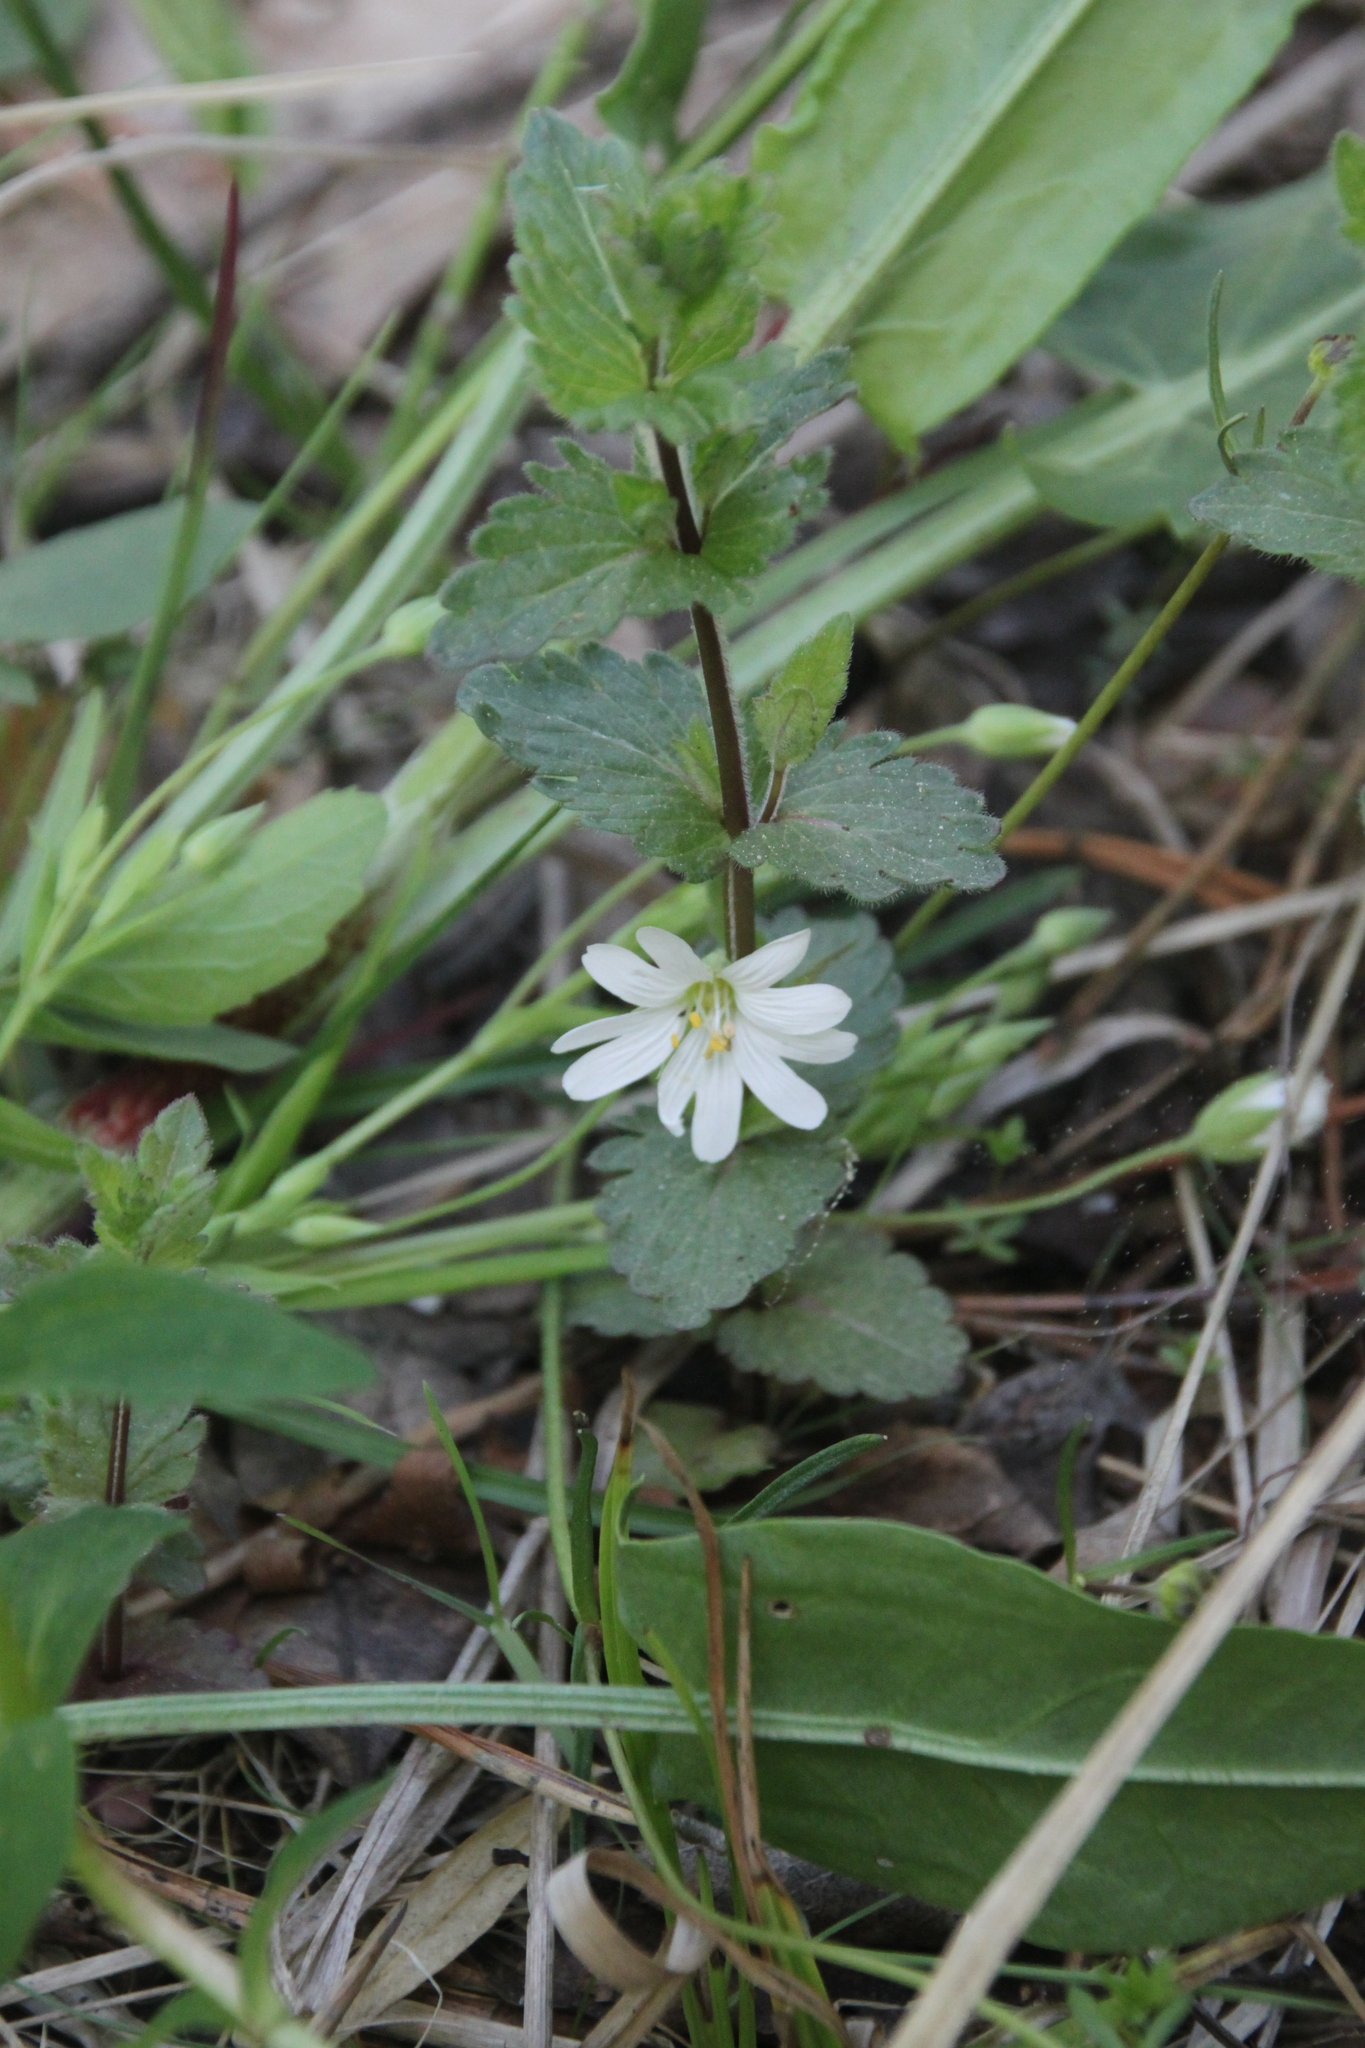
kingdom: Plantae
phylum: Tracheophyta
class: Magnoliopsida
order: Lamiales
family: Plantaginaceae
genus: Veronica
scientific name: Veronica chamaedrys
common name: Germander speedwell
